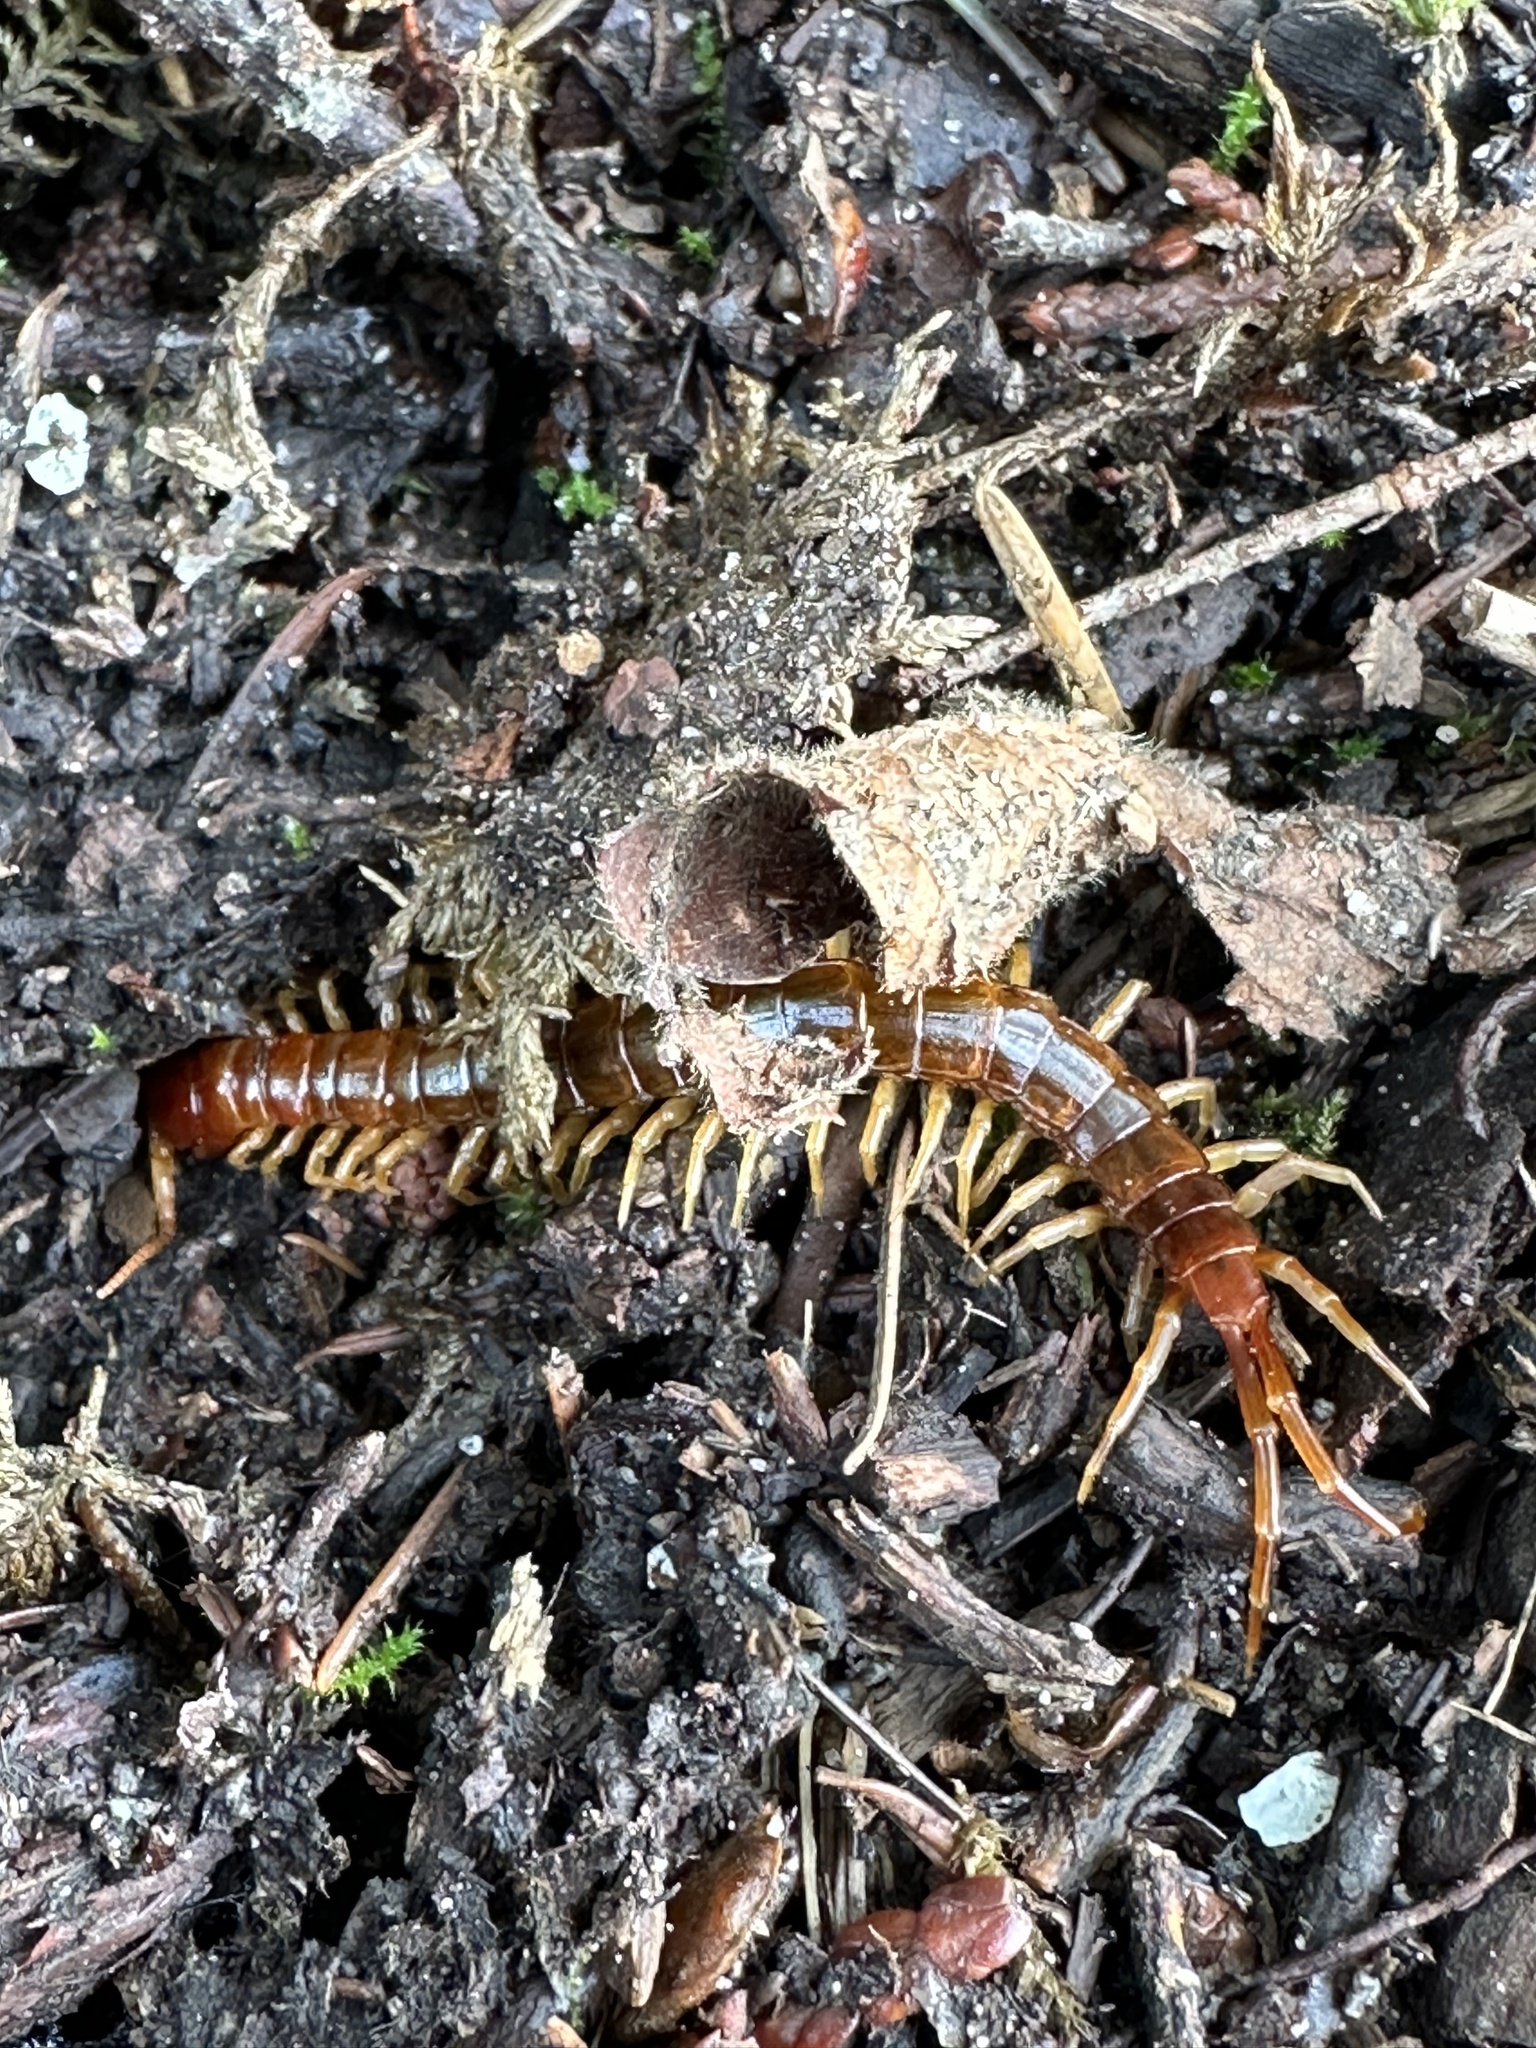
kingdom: Animalia
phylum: Arthropoda
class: Chilopoda
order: Scolopendromorpha
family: Scolopocryptopidae
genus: Scolopocryptops
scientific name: Scolopocryptops spinicaudus
